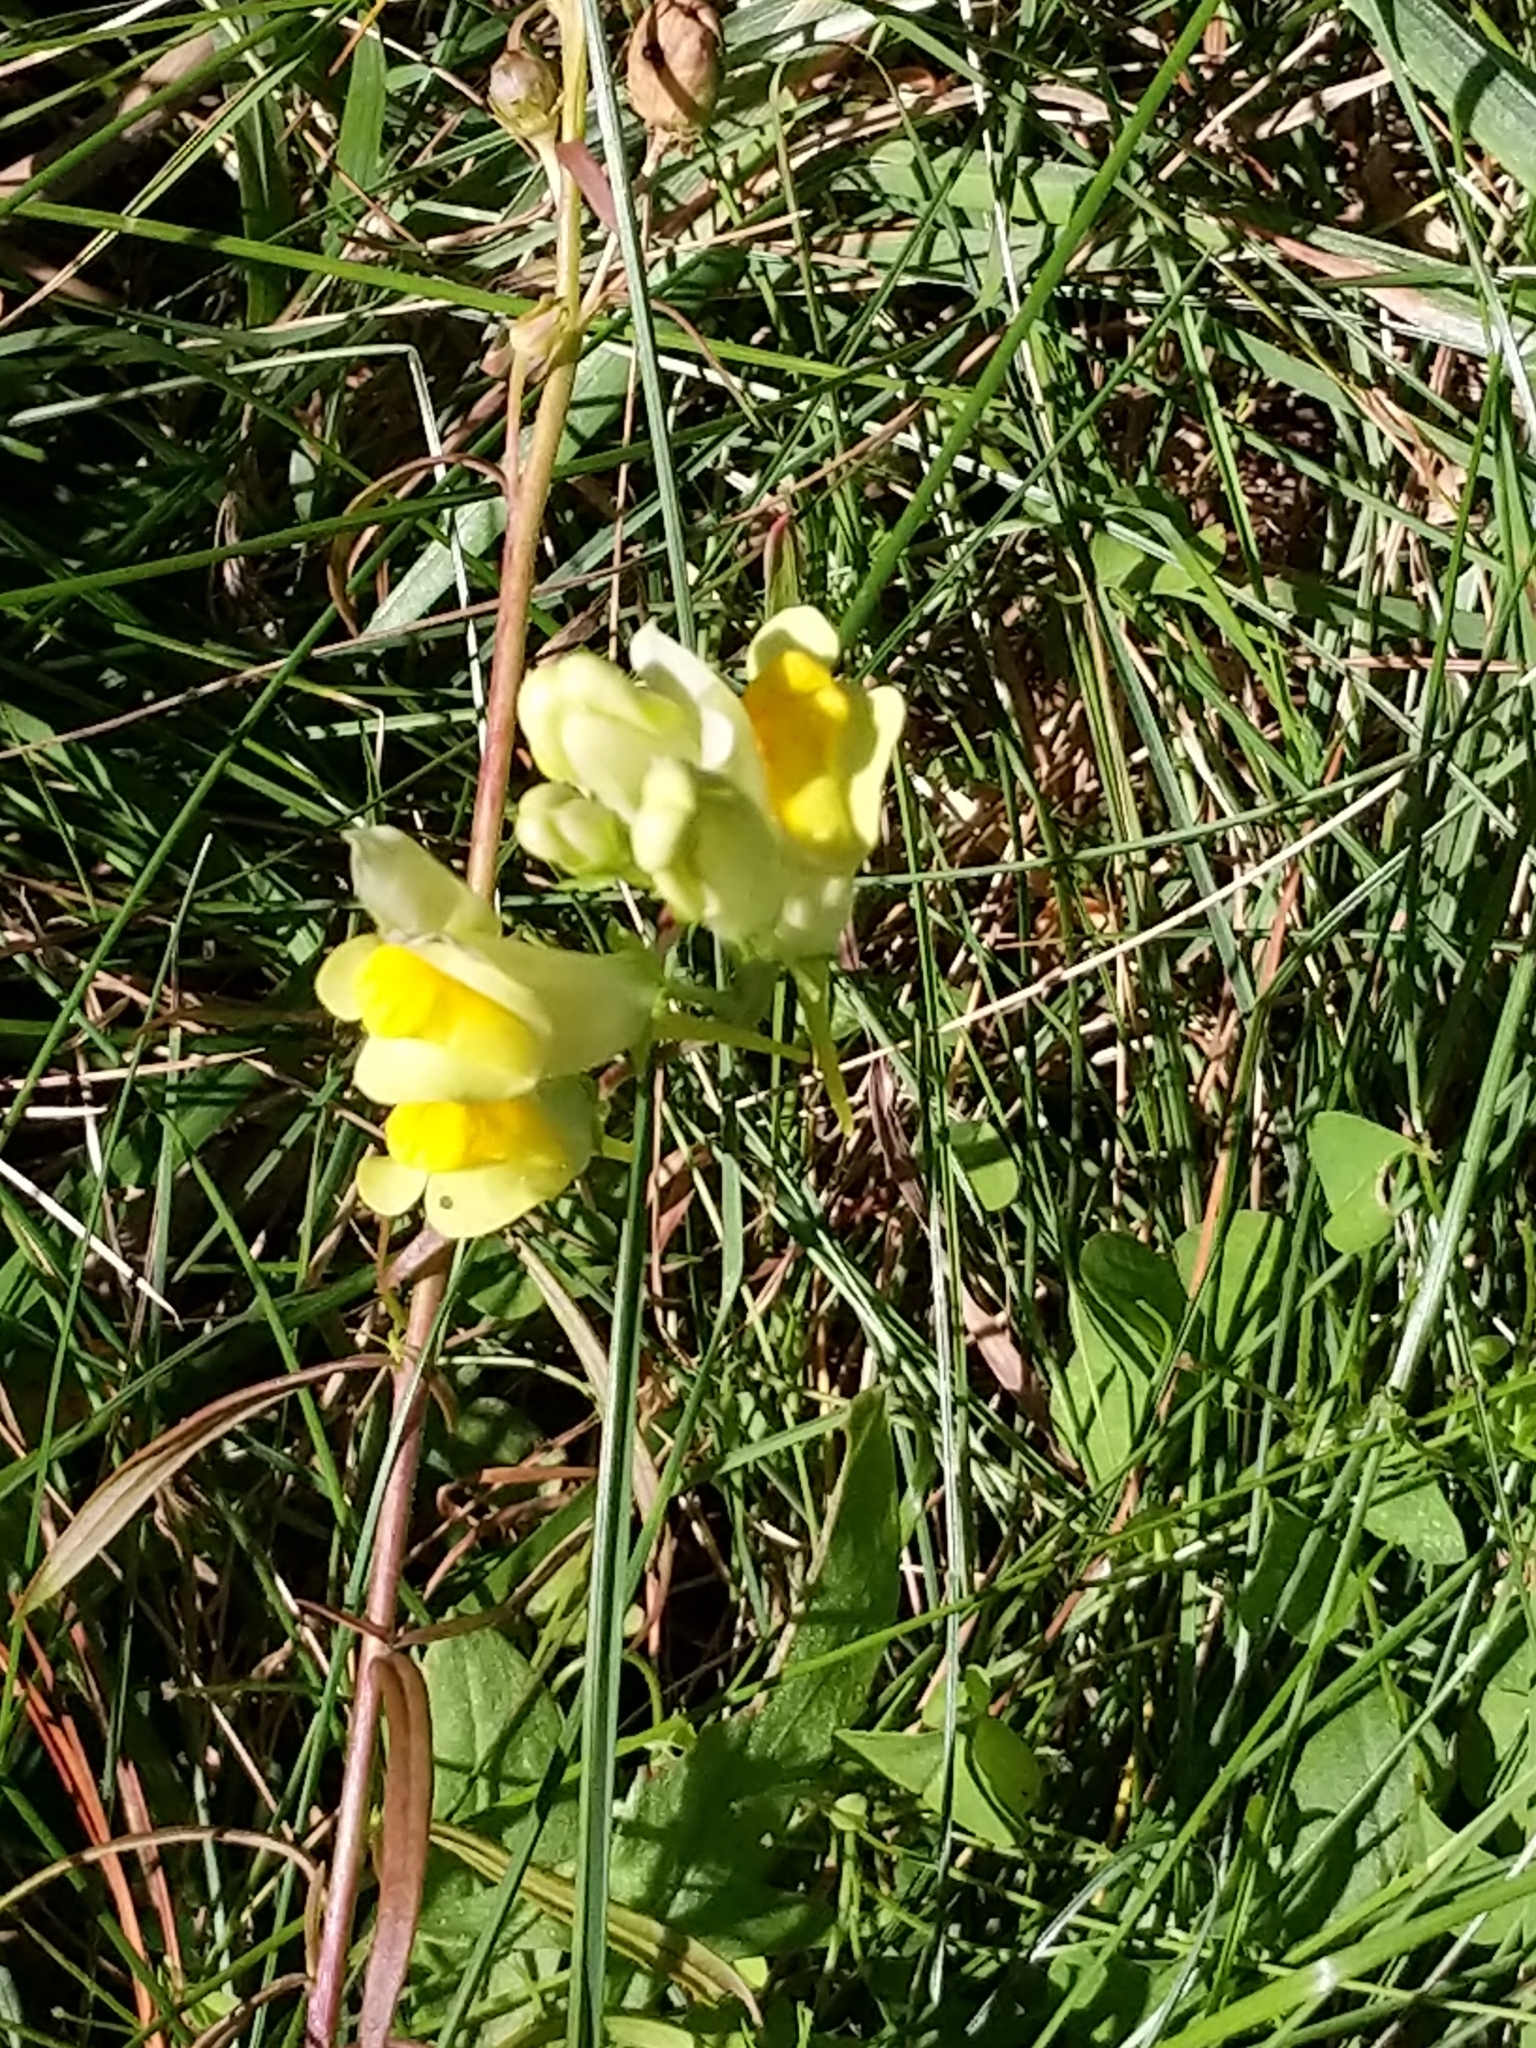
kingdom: Plantae
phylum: Tracheophyta
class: Magnoliopsida
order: Lamiales
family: Plantaginaceae
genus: Linaria
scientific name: Linaria vulgaris
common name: Butter and eggs
